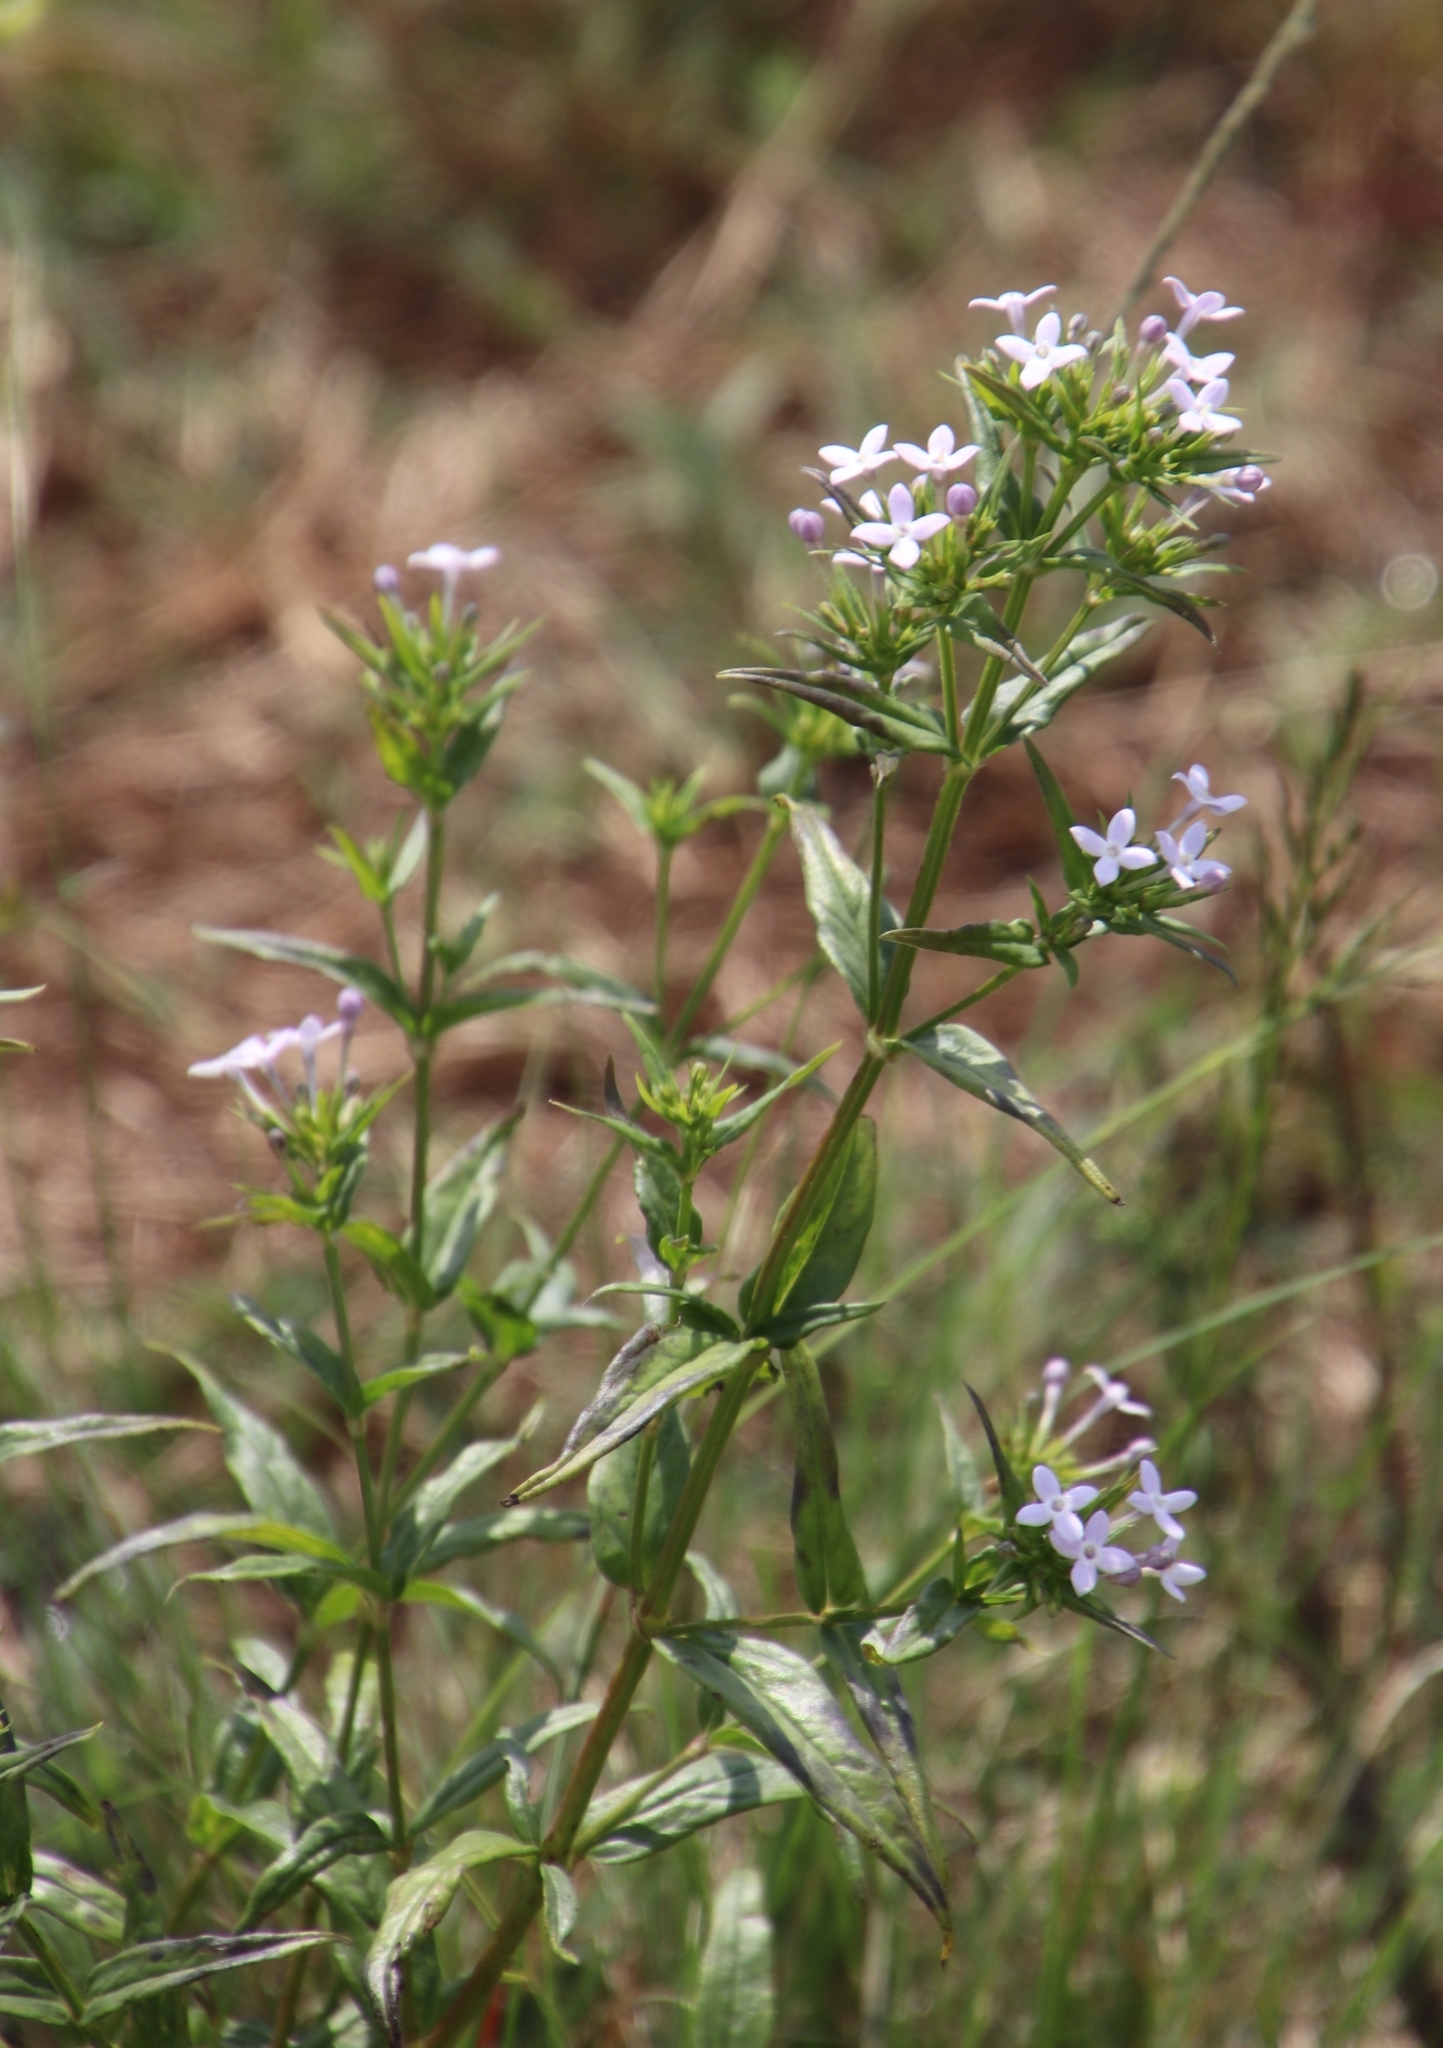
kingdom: Plantae
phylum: Tracheophyta
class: Magnoliopsida
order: Gentianales
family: Rubiaceae
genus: Conostomium
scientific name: Conostomium natalense
